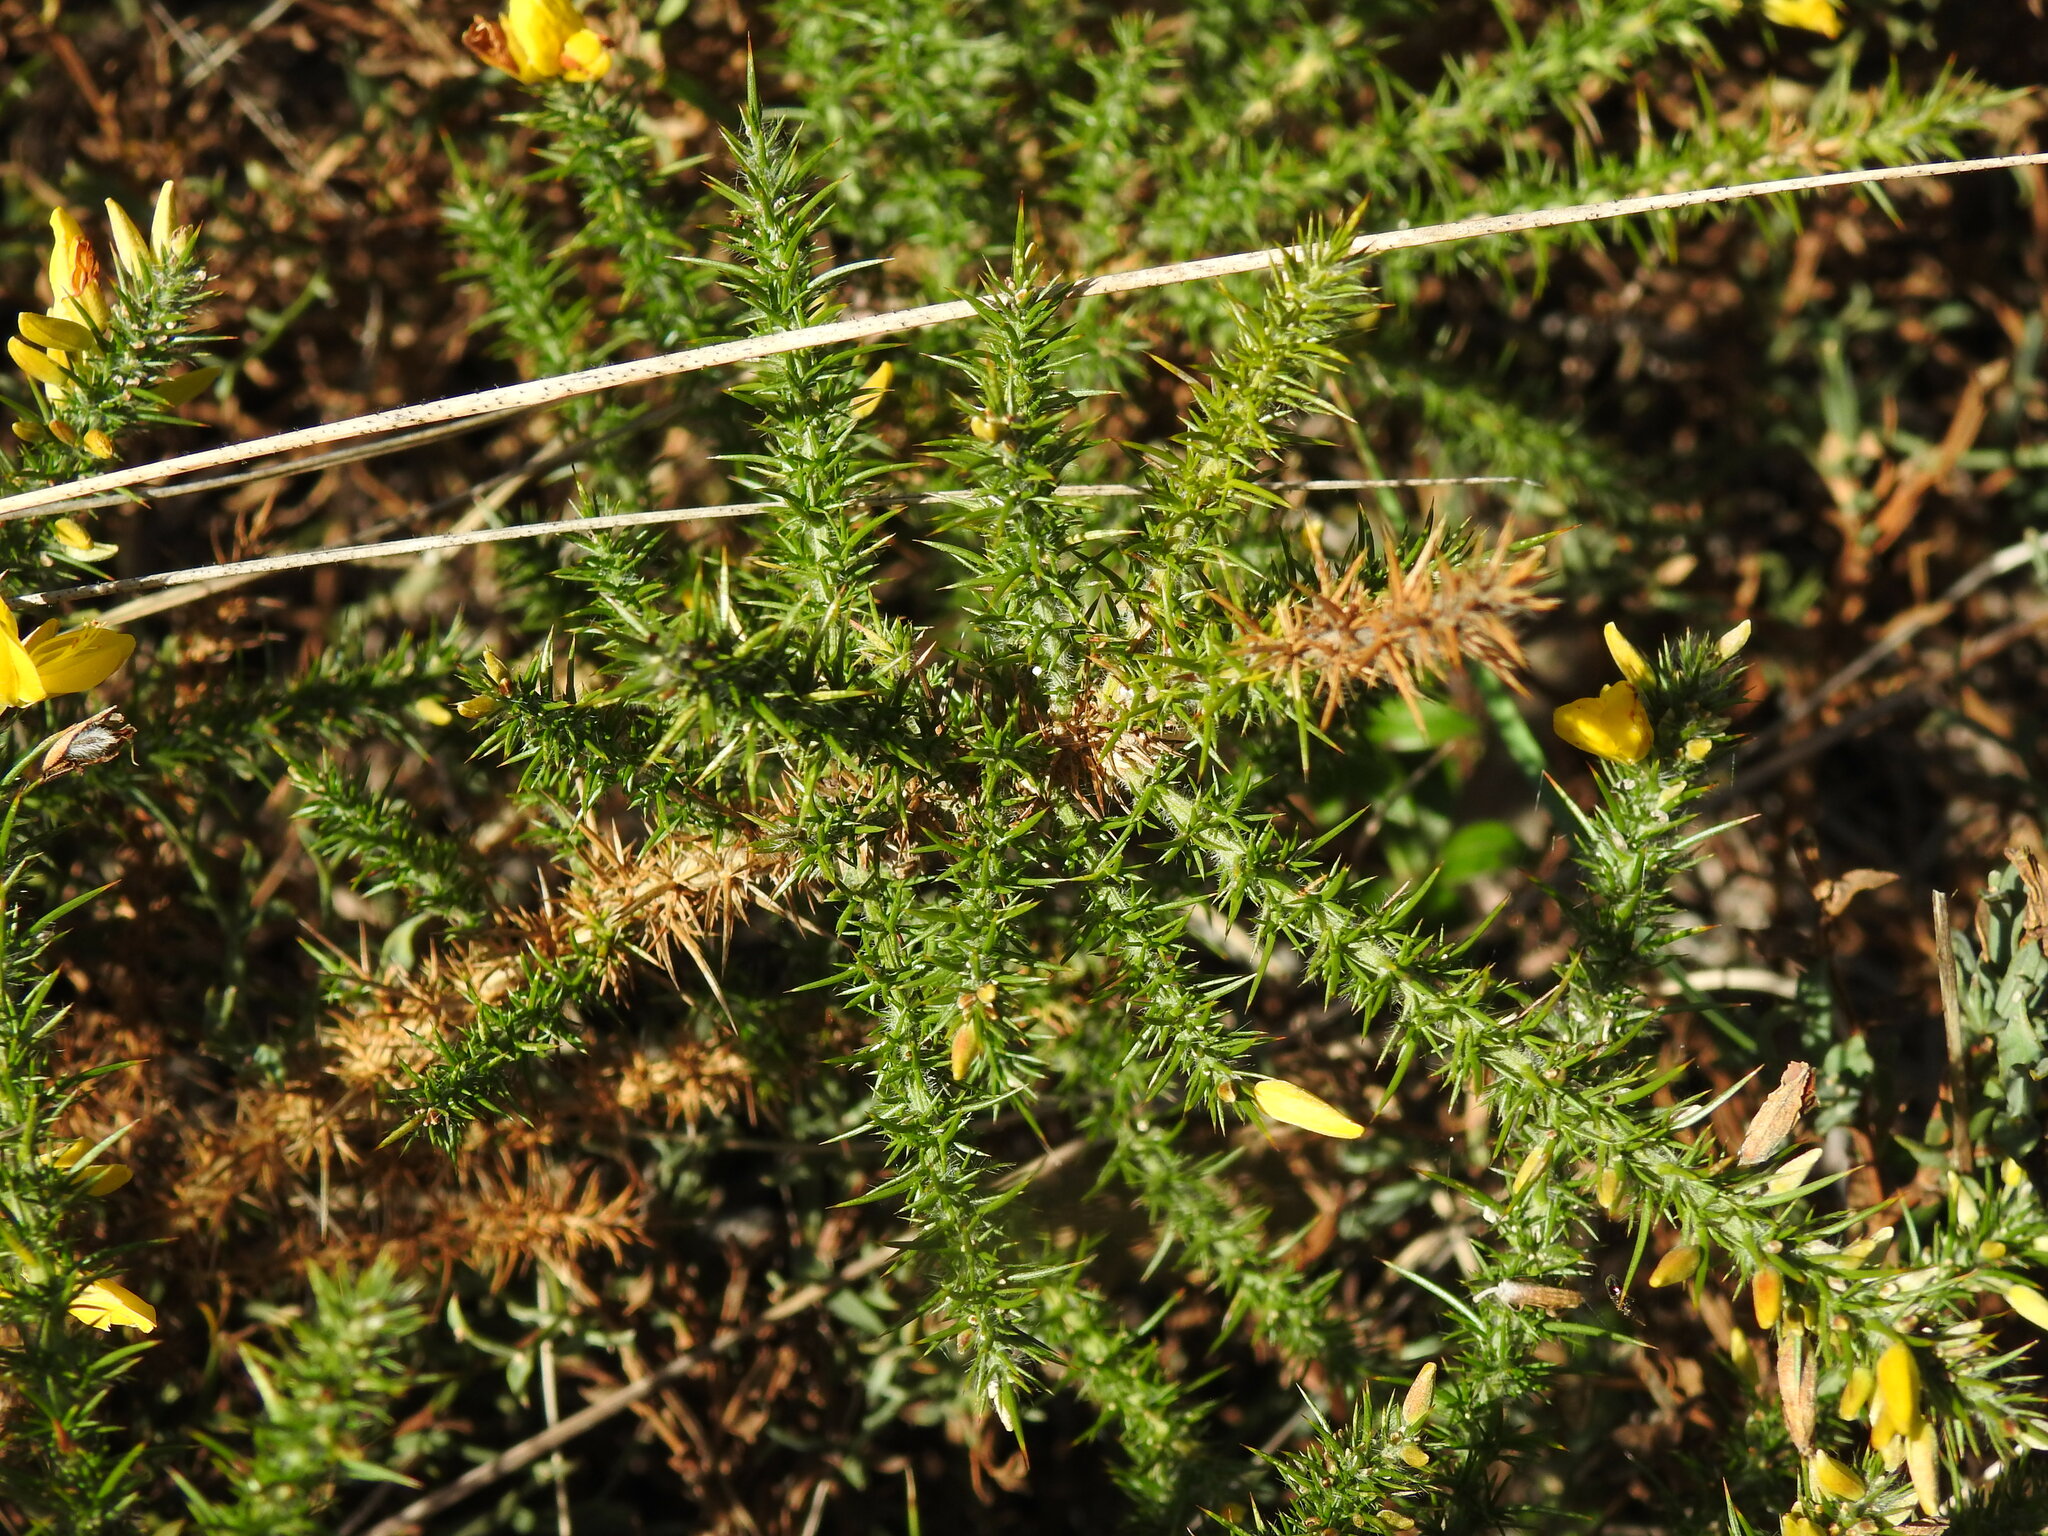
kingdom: Plantae
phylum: Tracheophyta
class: Magnoliopsida
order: Fabales
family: Fabaceae
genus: Ulex
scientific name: Ulex minor
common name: Dwarf gorse
